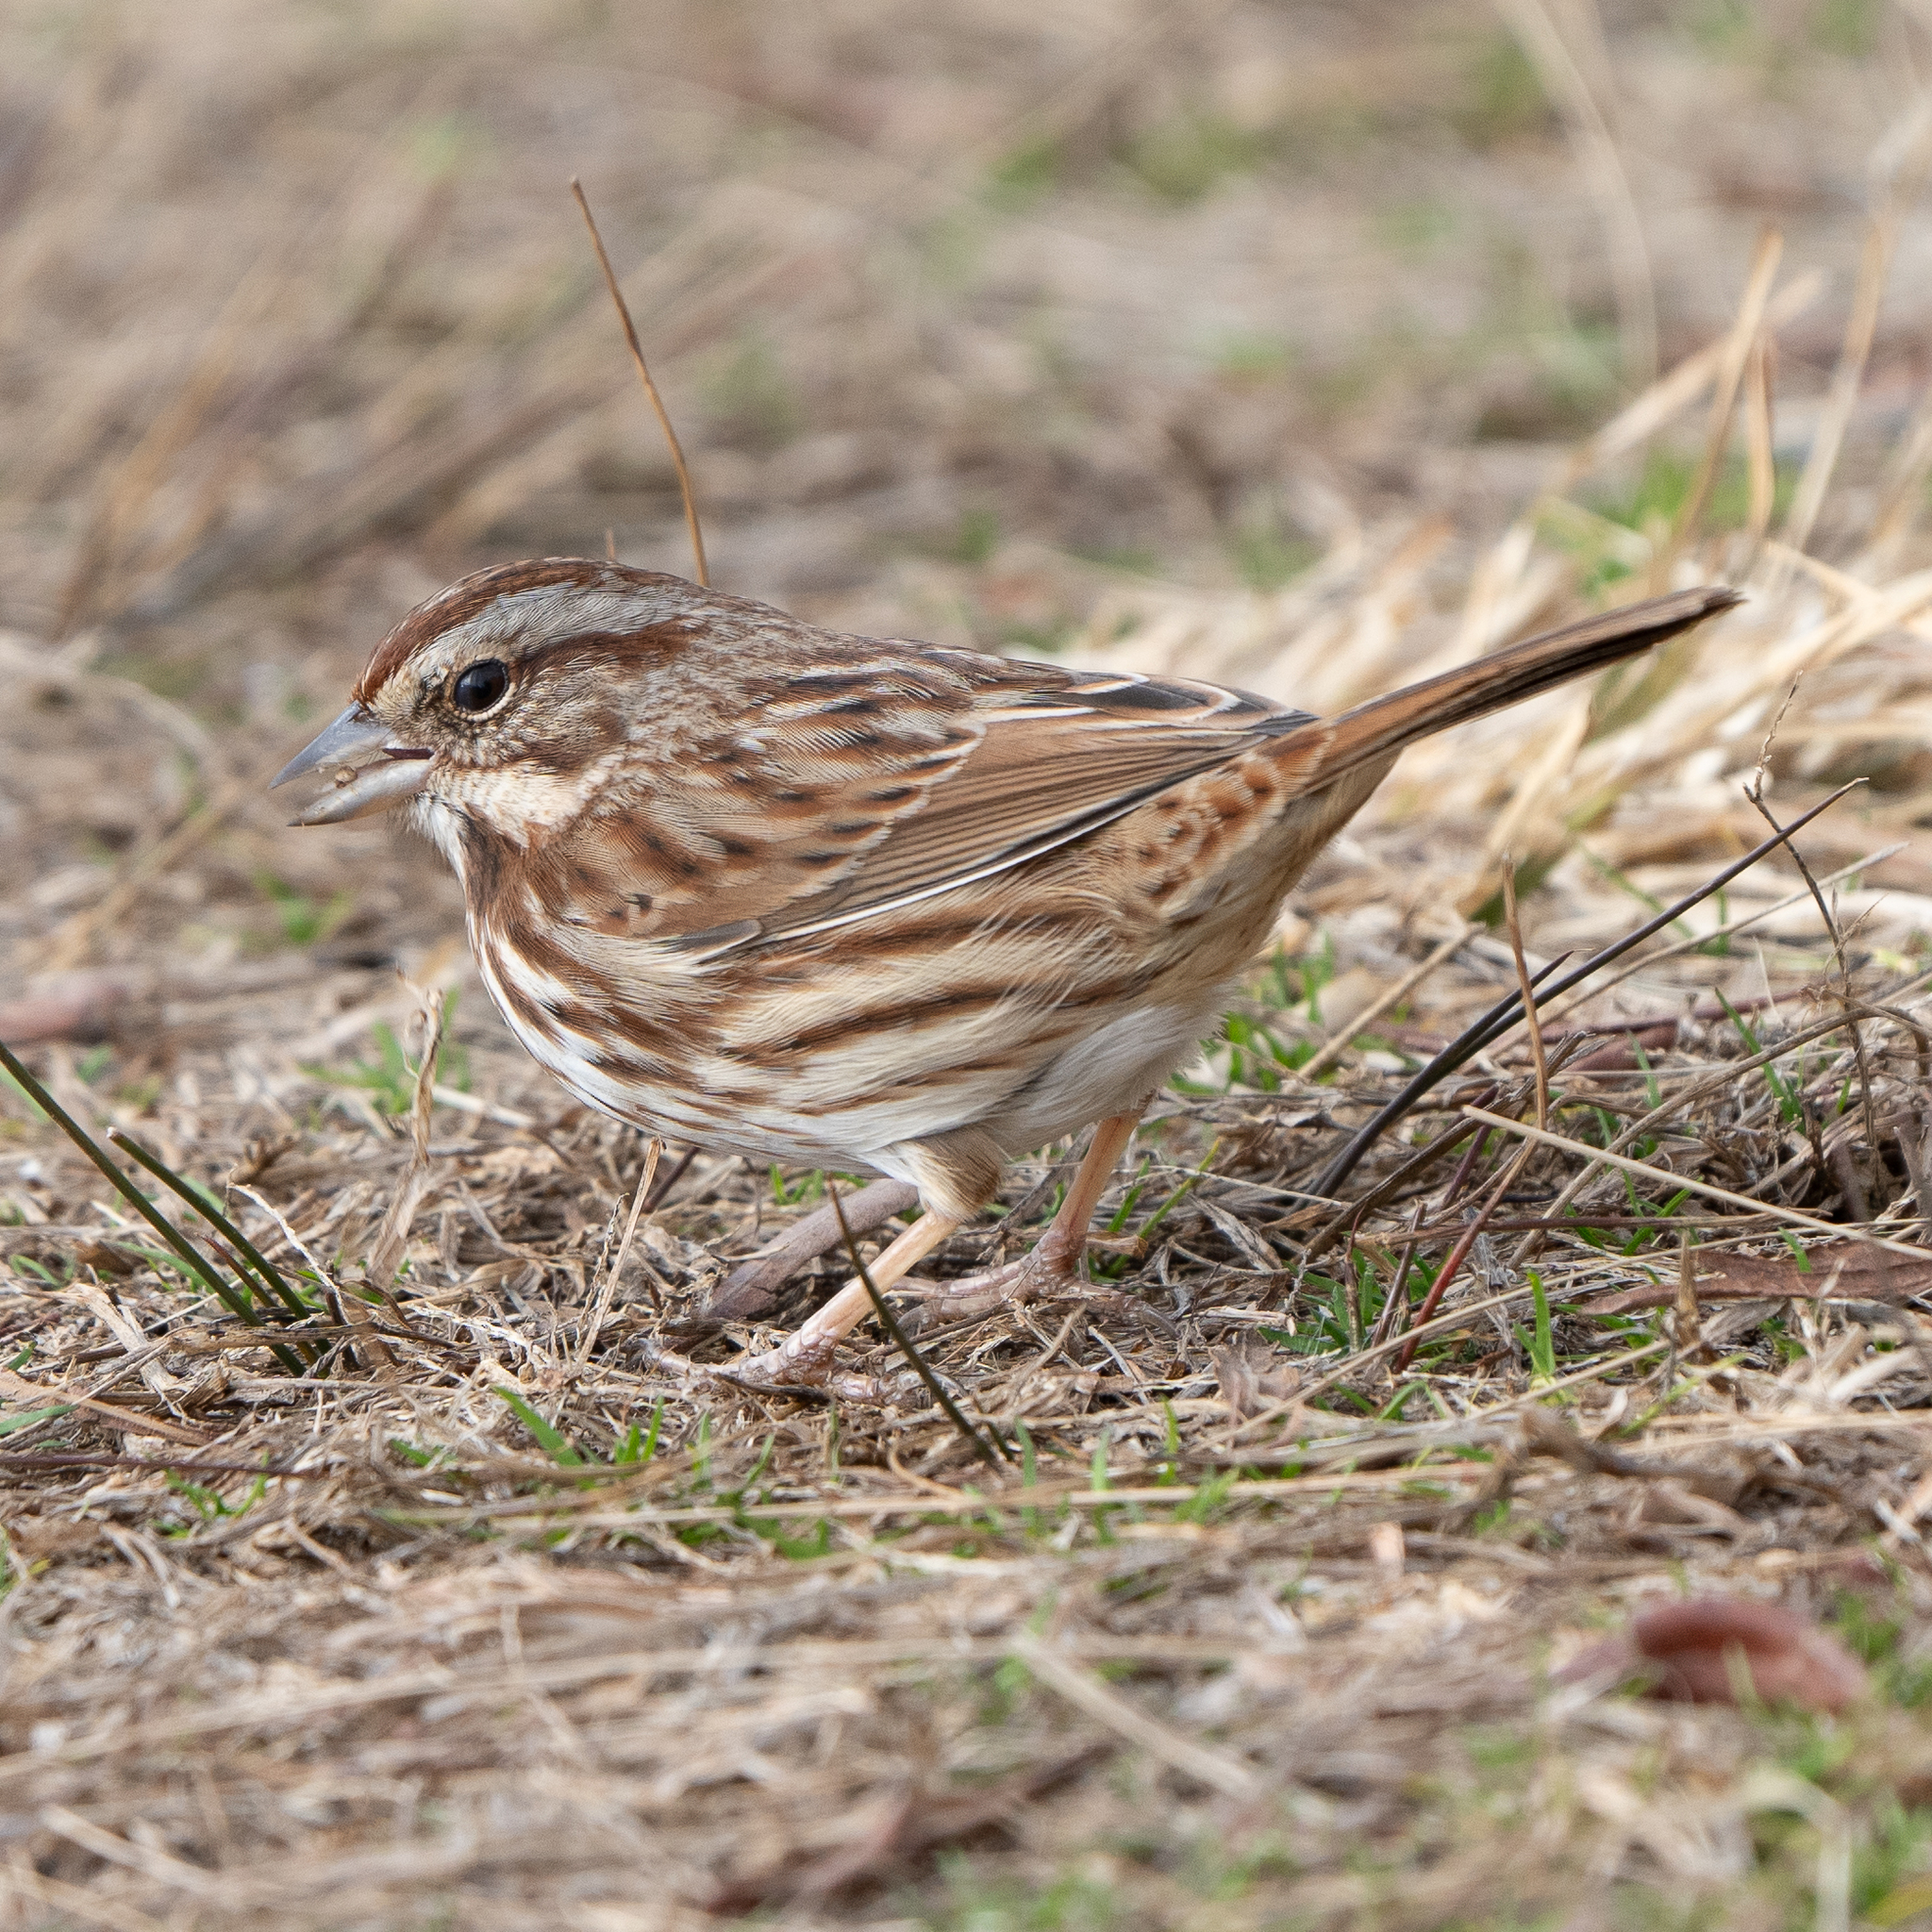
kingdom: Animalia
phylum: Chordata
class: Aves
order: Passeriformes
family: Passerellidae
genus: Melospiza
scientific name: Melospiza melodia
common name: Song sparrow
